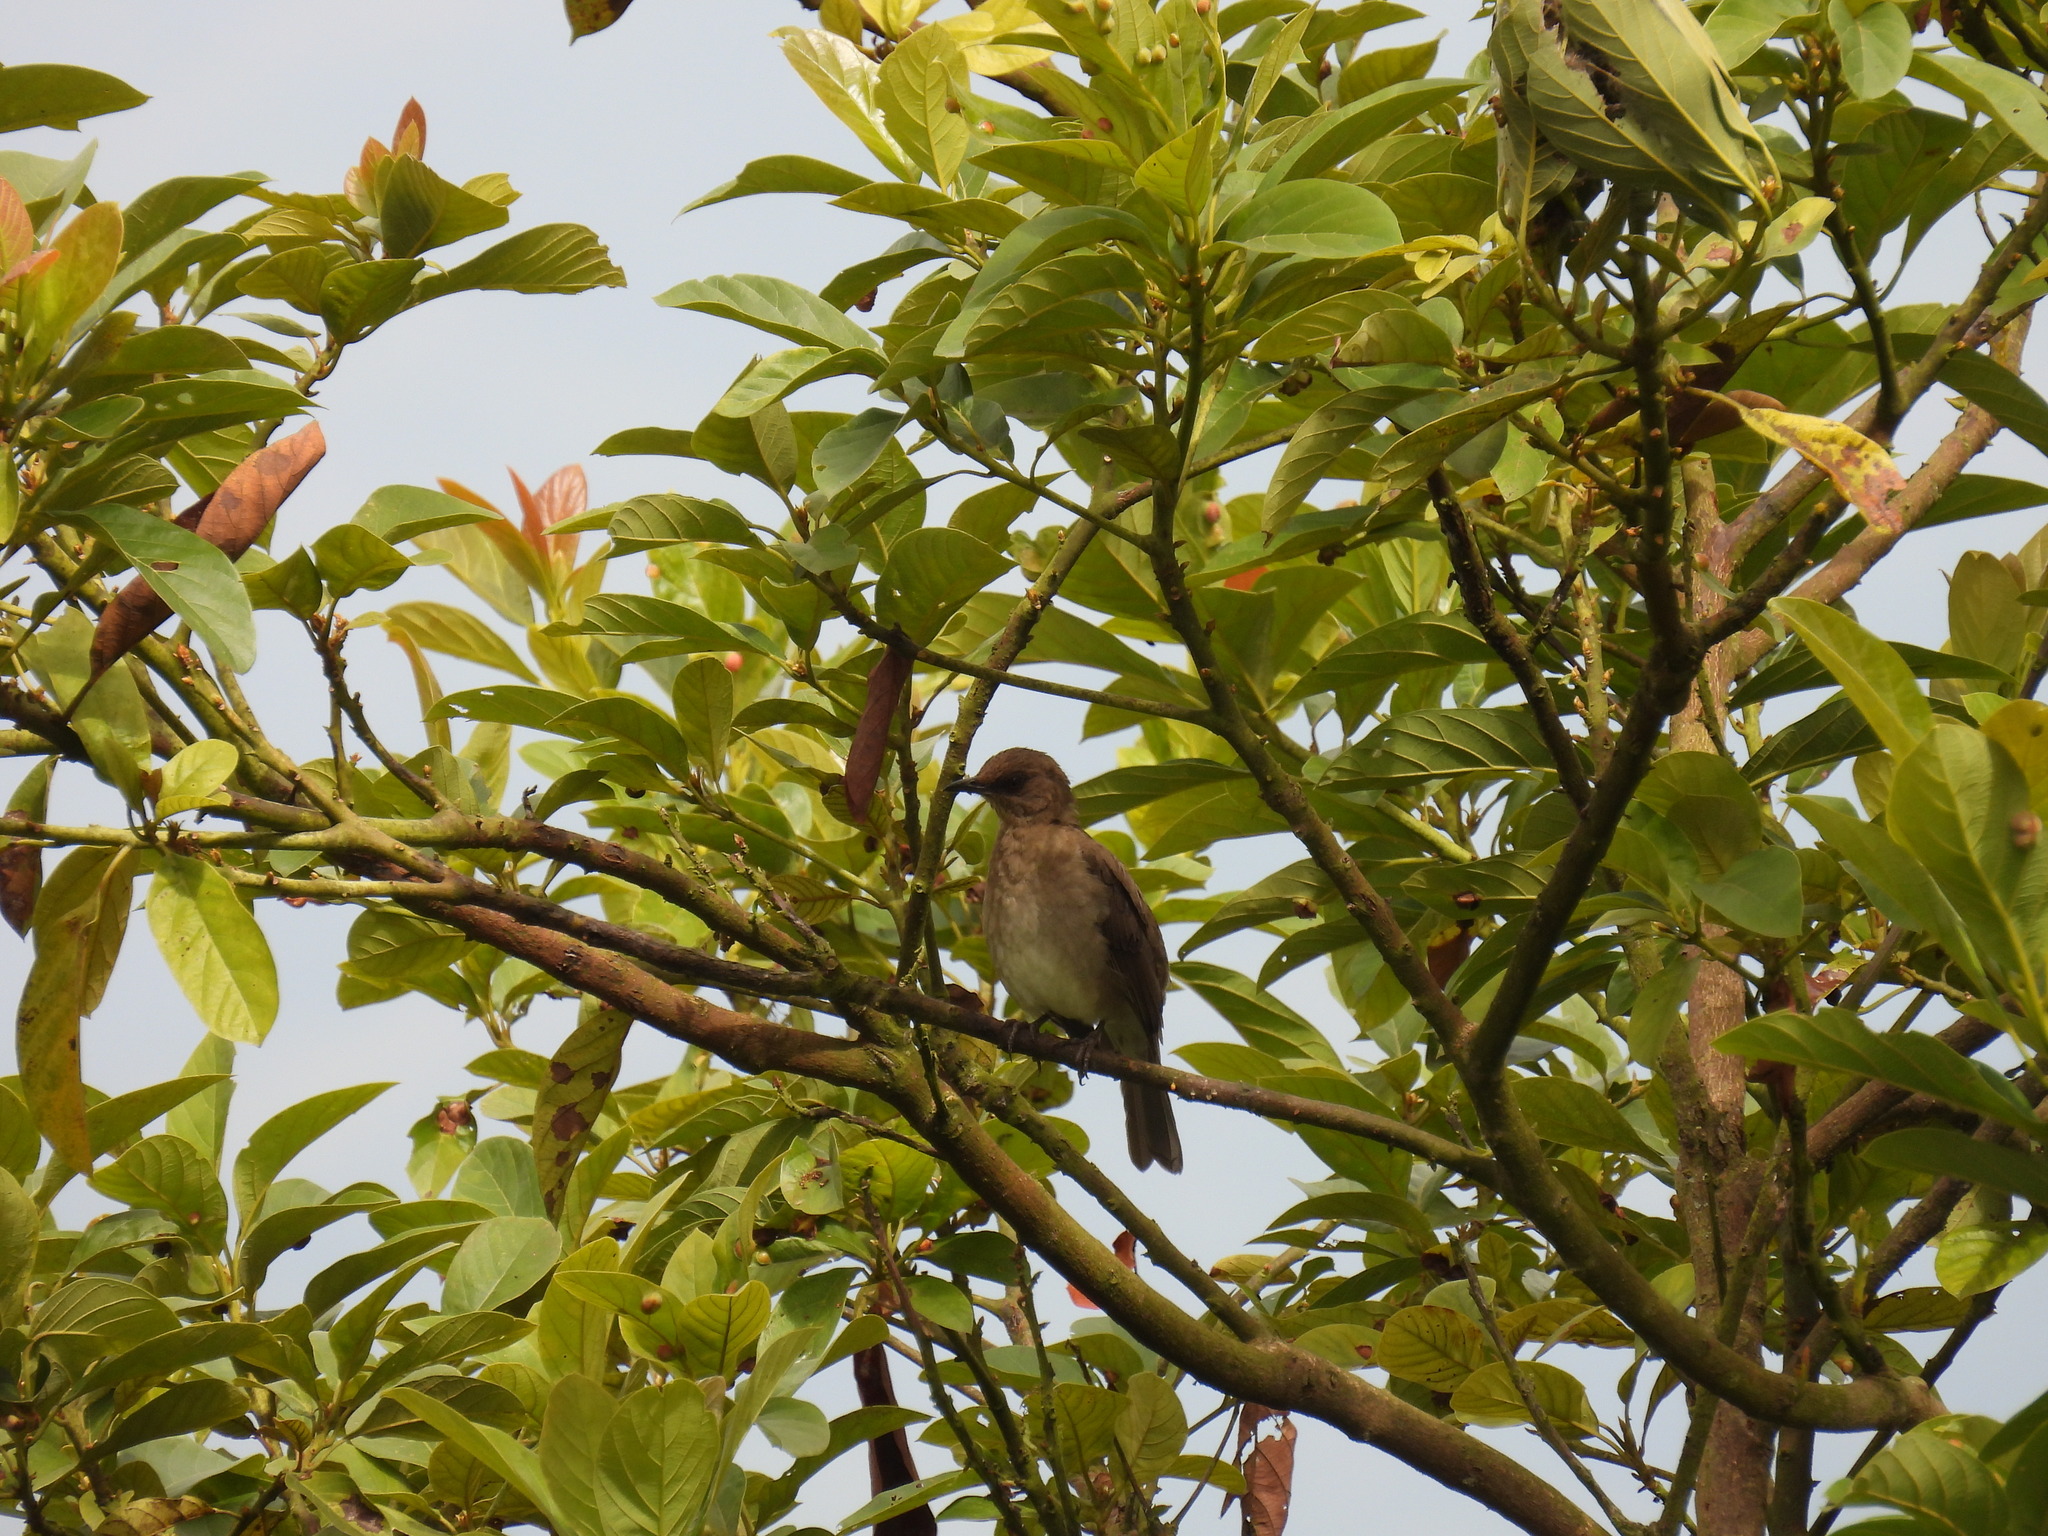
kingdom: Animalia
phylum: Chordata
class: Aves
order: Passeriformes
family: Turdidae
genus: Turdus
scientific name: Turdus ignobilis
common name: Black-billed thrush
